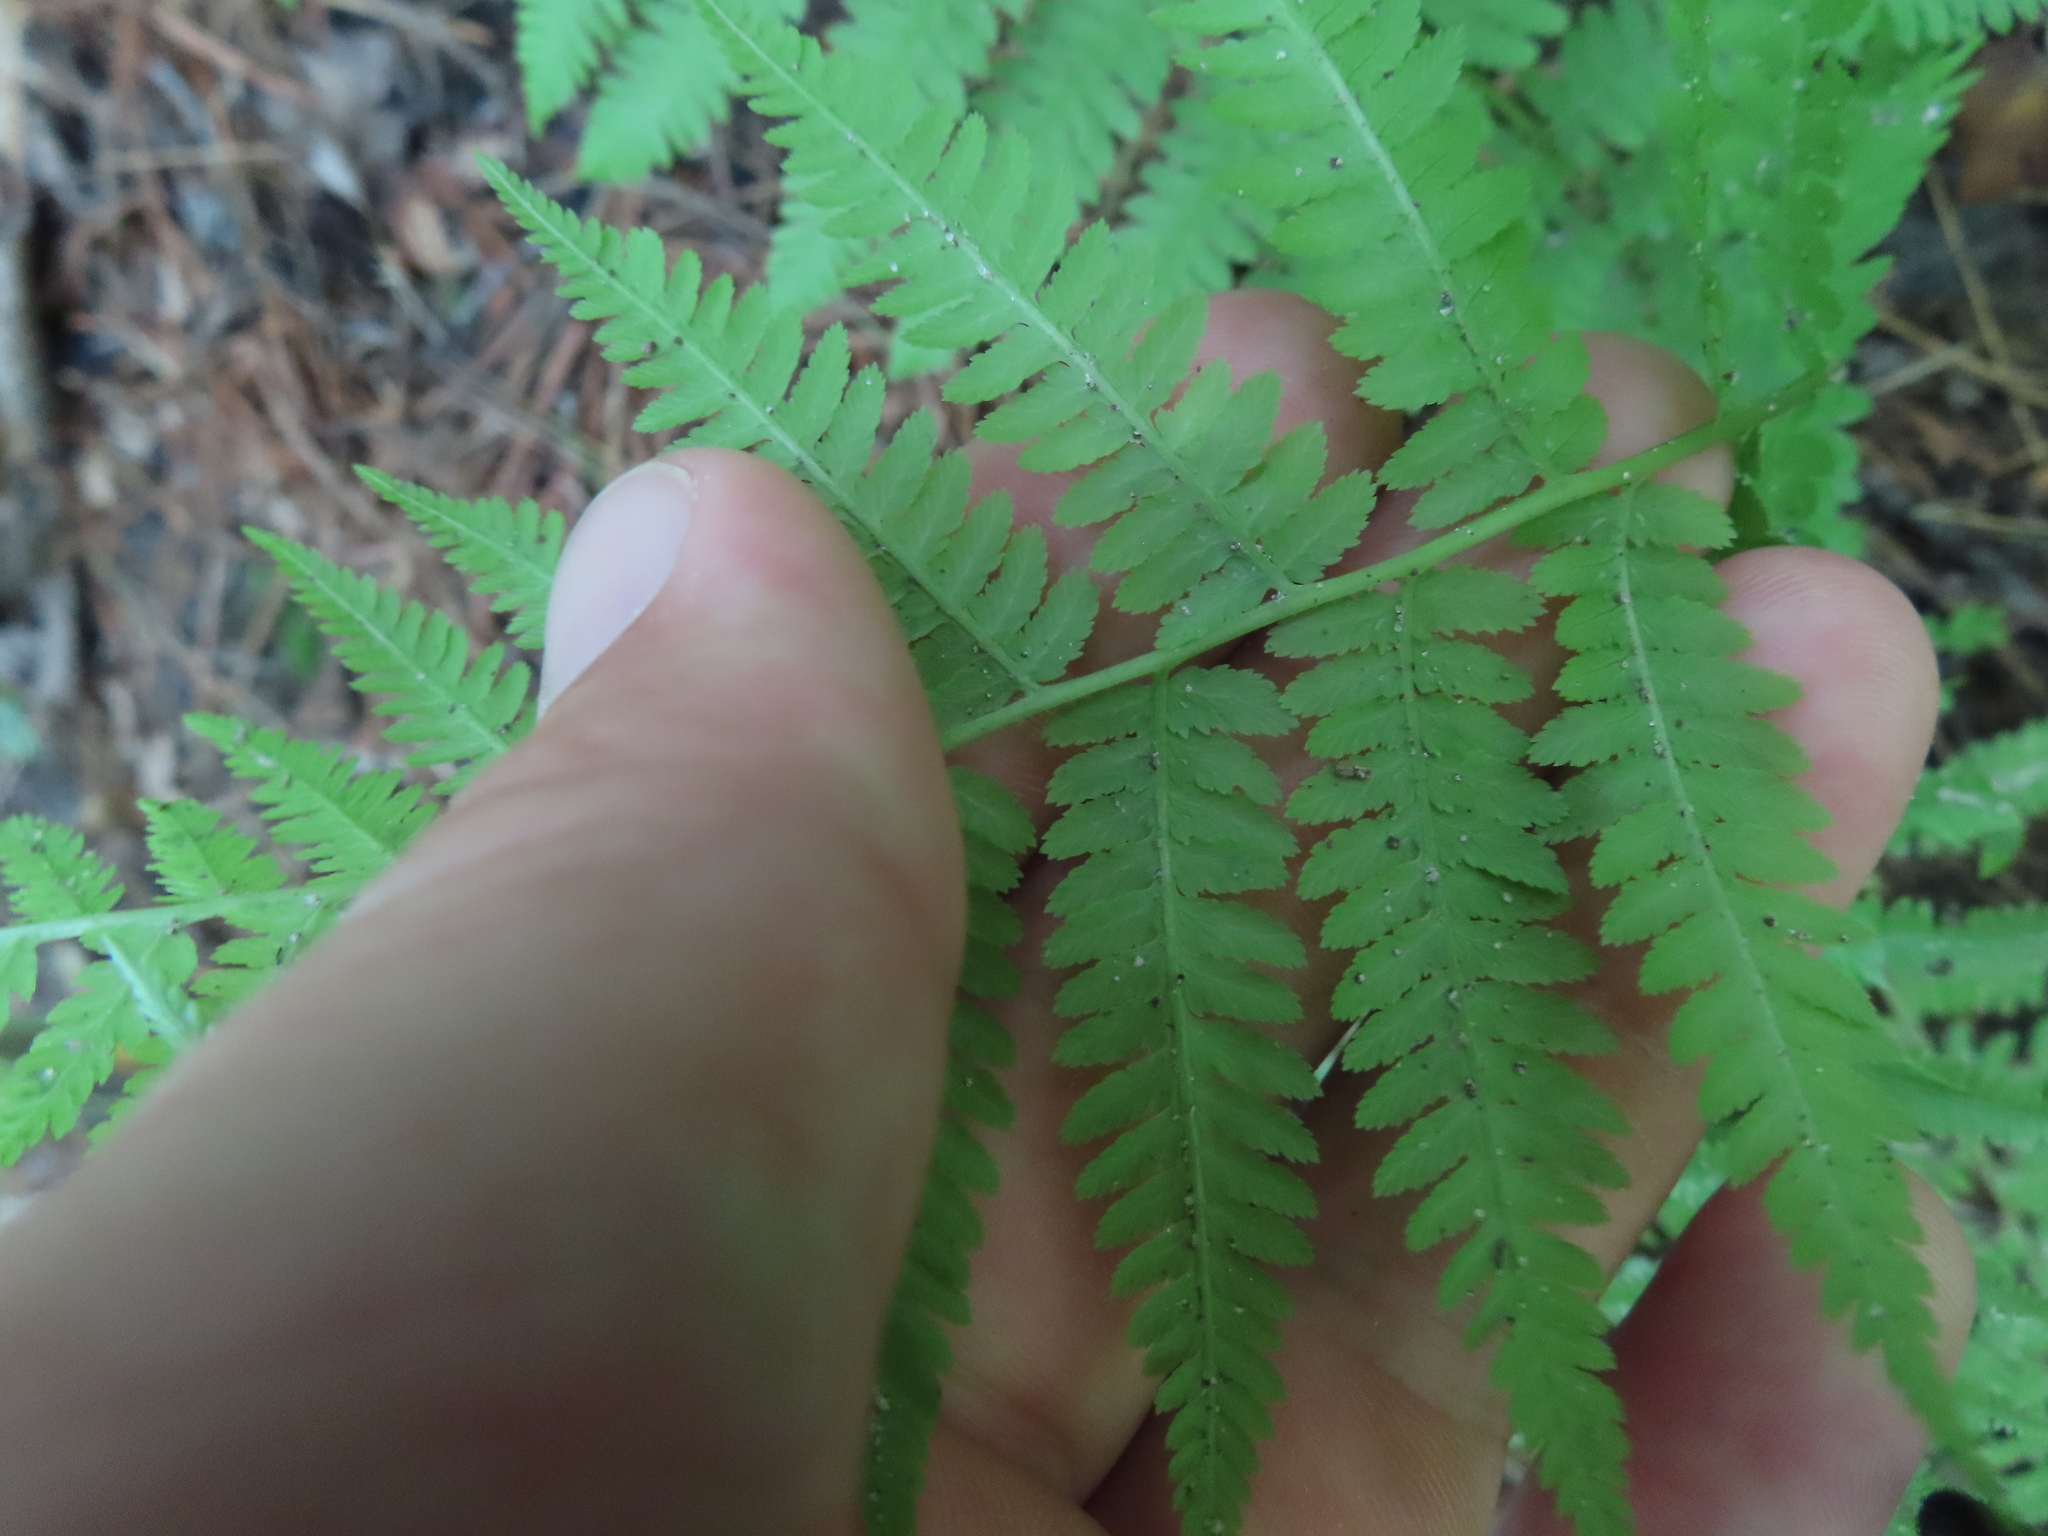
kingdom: Plantae
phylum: Tracheophyta
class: Polypodiopsida
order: Polypodiales
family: Athyriaceae
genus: Athyrium
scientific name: Athyrium angustum
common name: Northern lady fern
